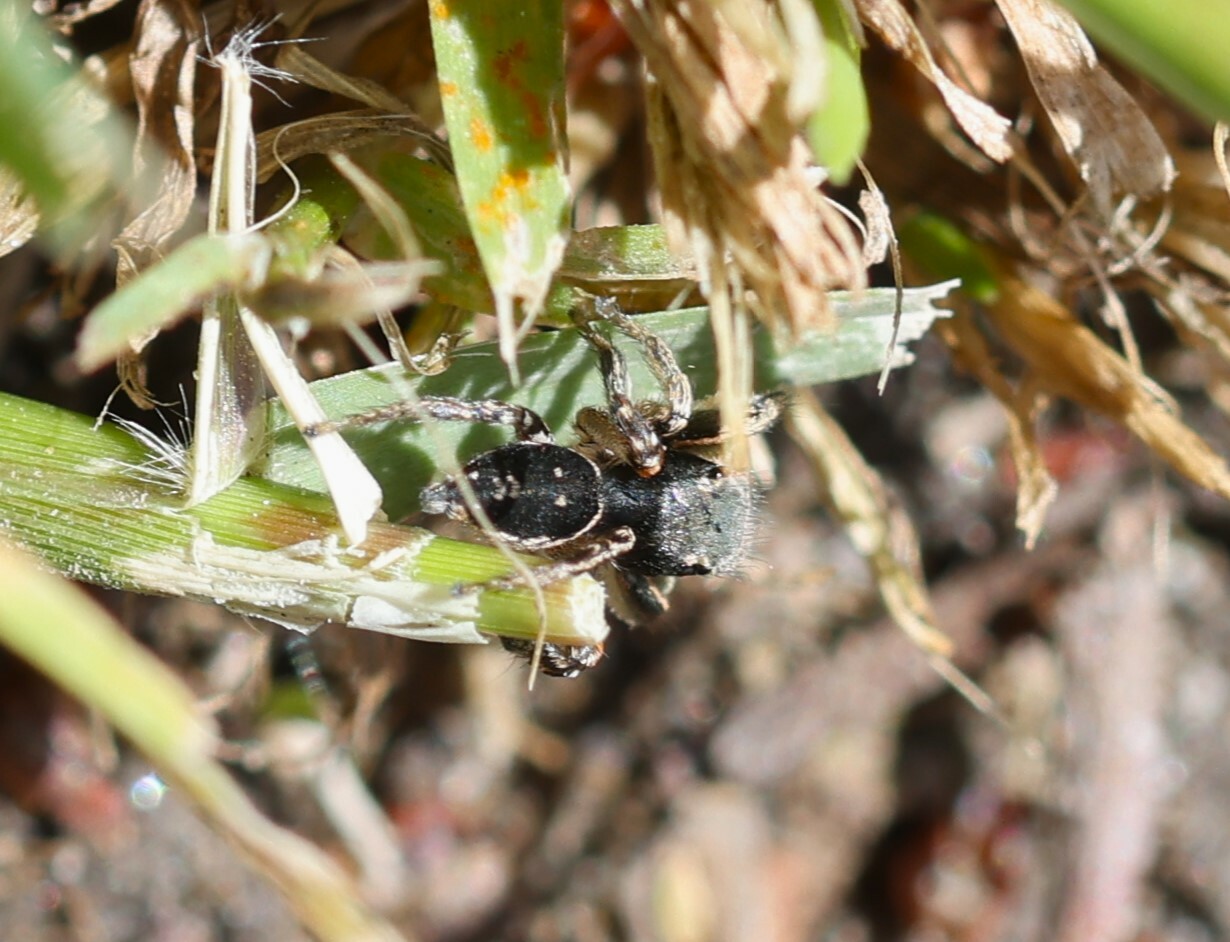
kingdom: Animalia
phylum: Arthropoda
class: Arachnida
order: Araneae
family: Salticidae
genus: Habronattus
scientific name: Habronattus pyrrithrix
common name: Jumping spider
